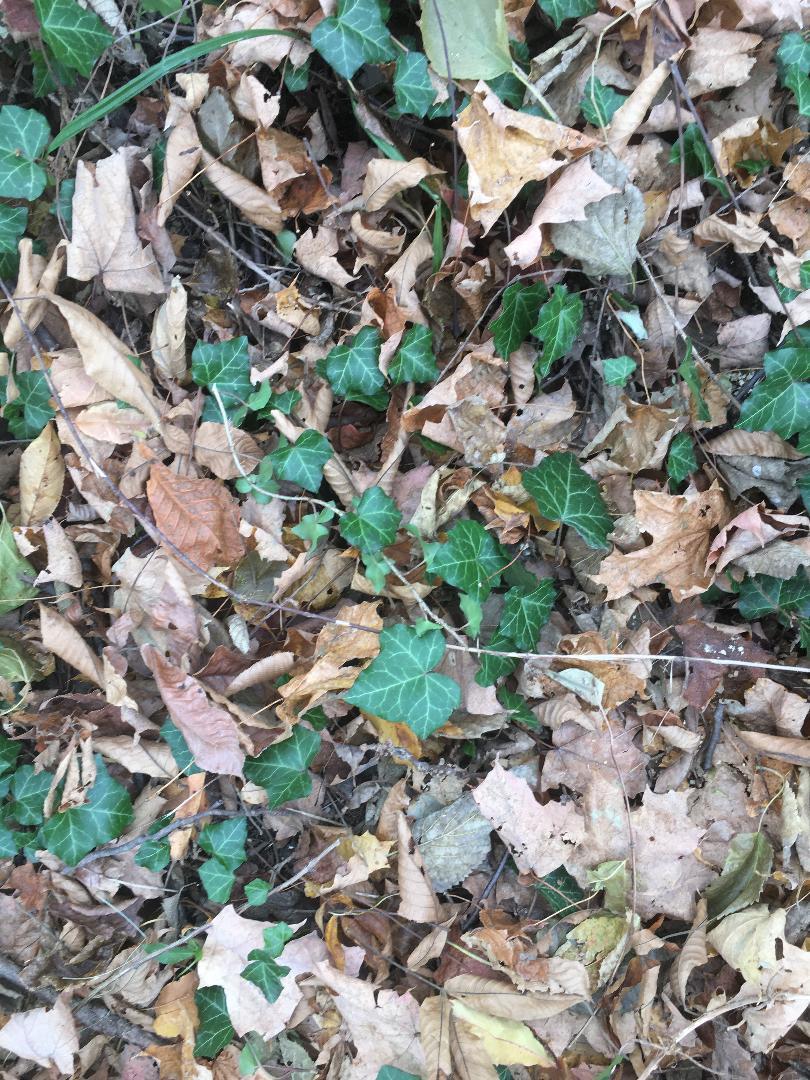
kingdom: Plantae
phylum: Tracheophyta
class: Magnoliopsida
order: Apiales
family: Araliaceae
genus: Hedera
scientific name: Hedera helix
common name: Ivy
